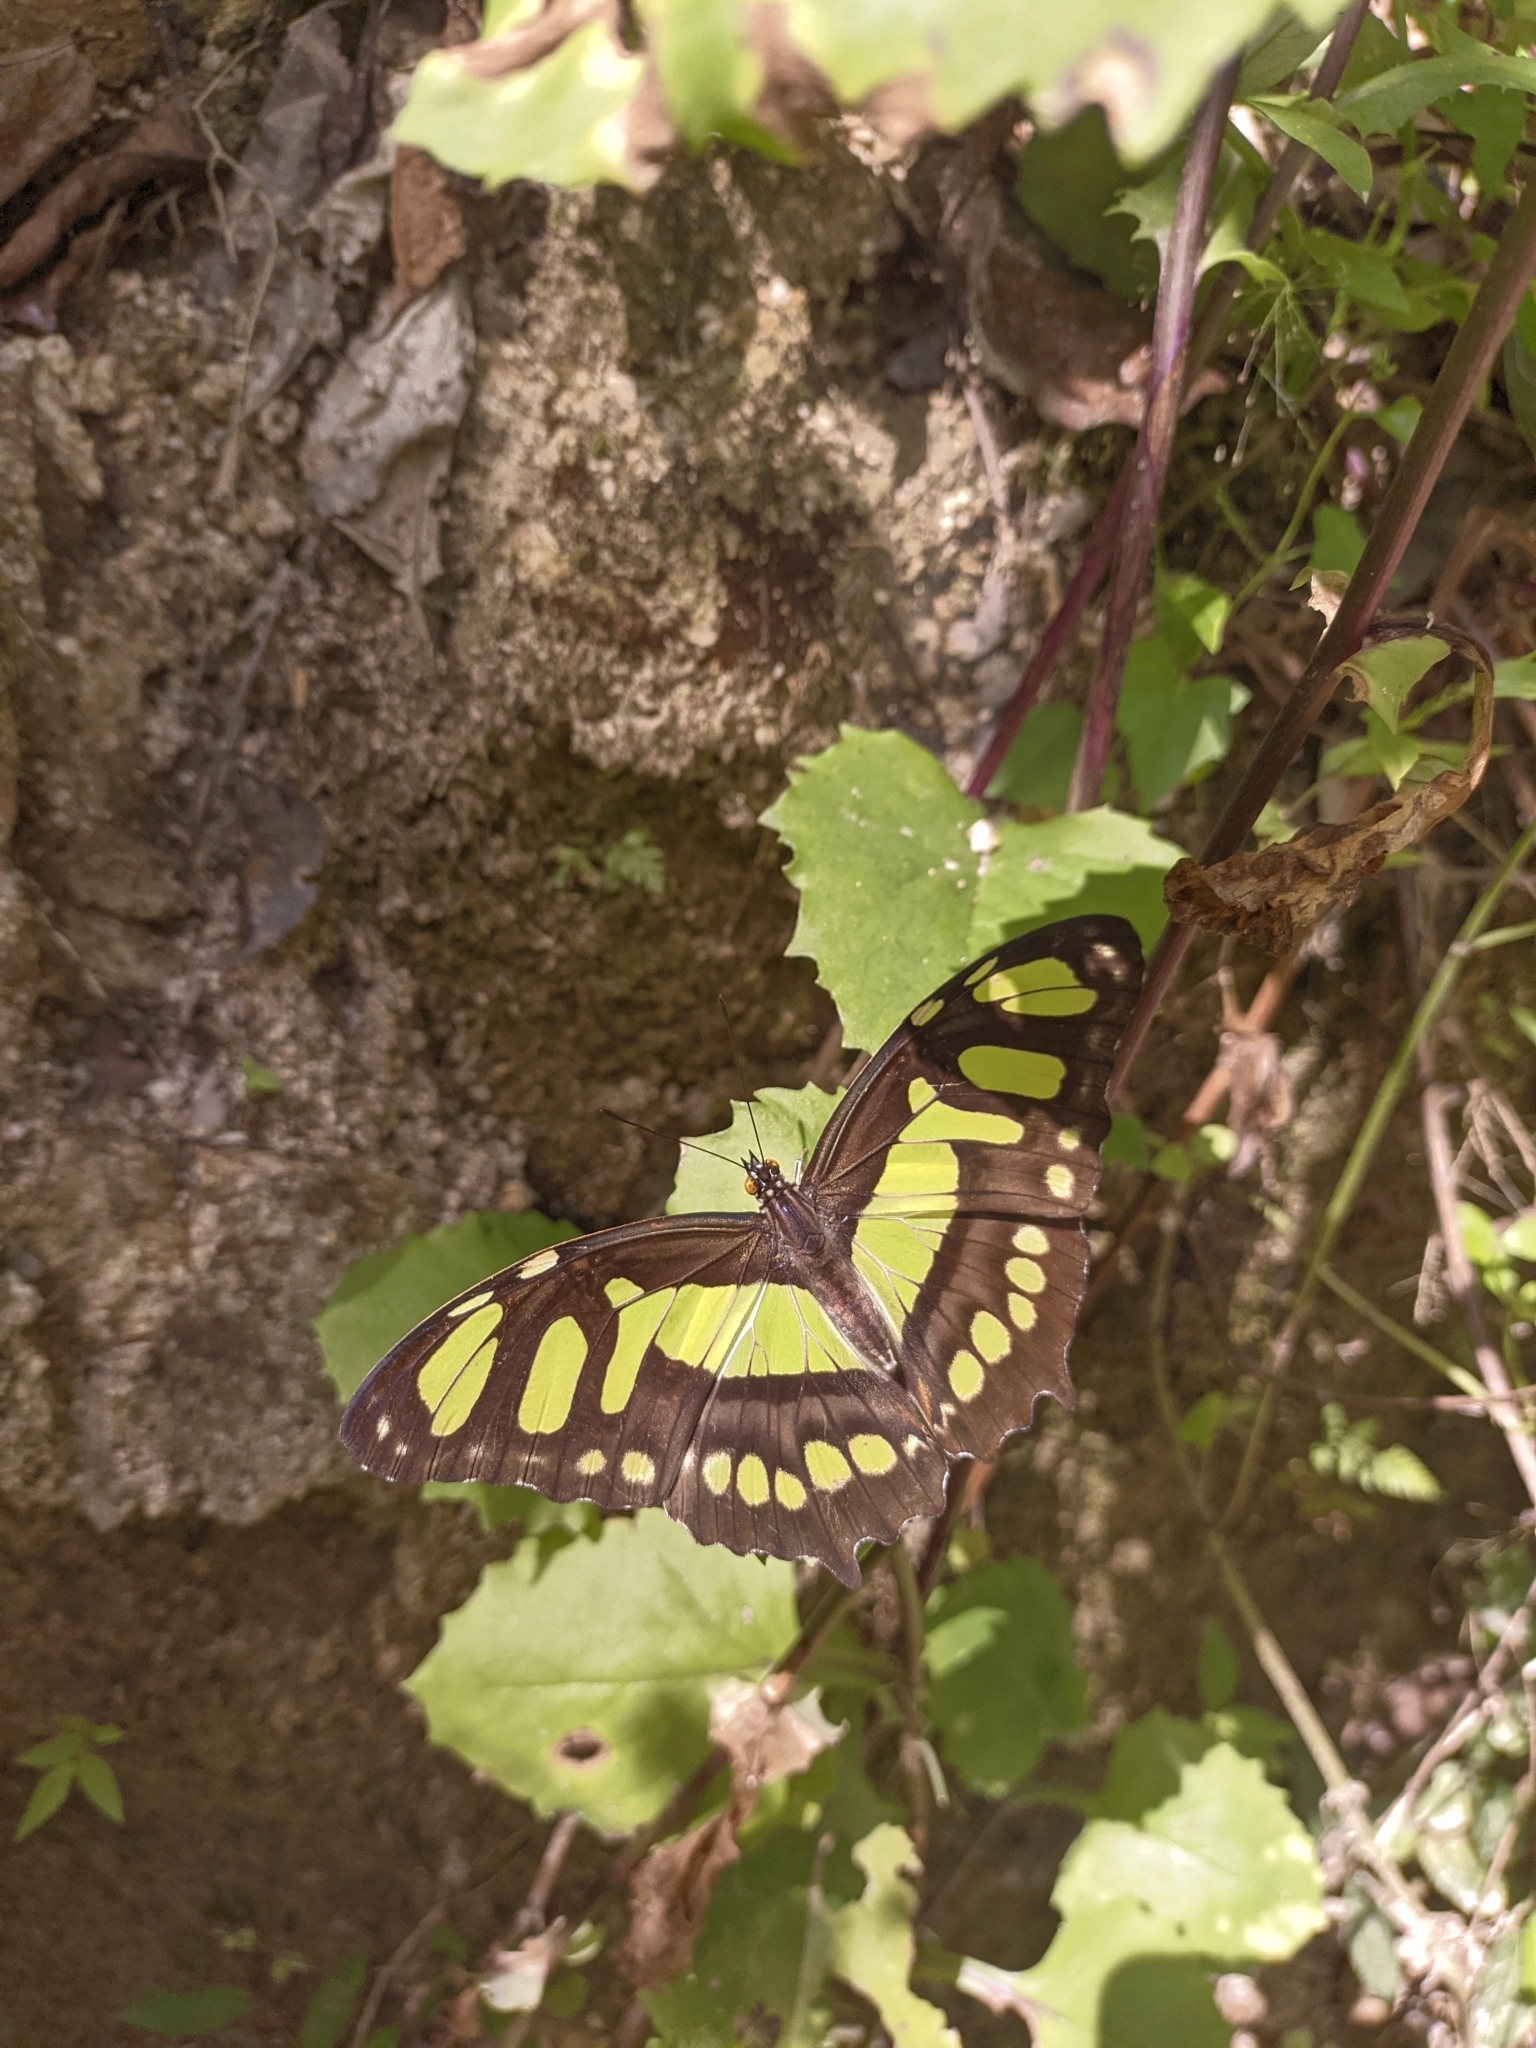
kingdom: Animalia
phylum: Arthropoda
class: Insecta
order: Lepidoptera
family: Nymphalidae
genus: Siproeta
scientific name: Siproeta stelenes
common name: Malachite
